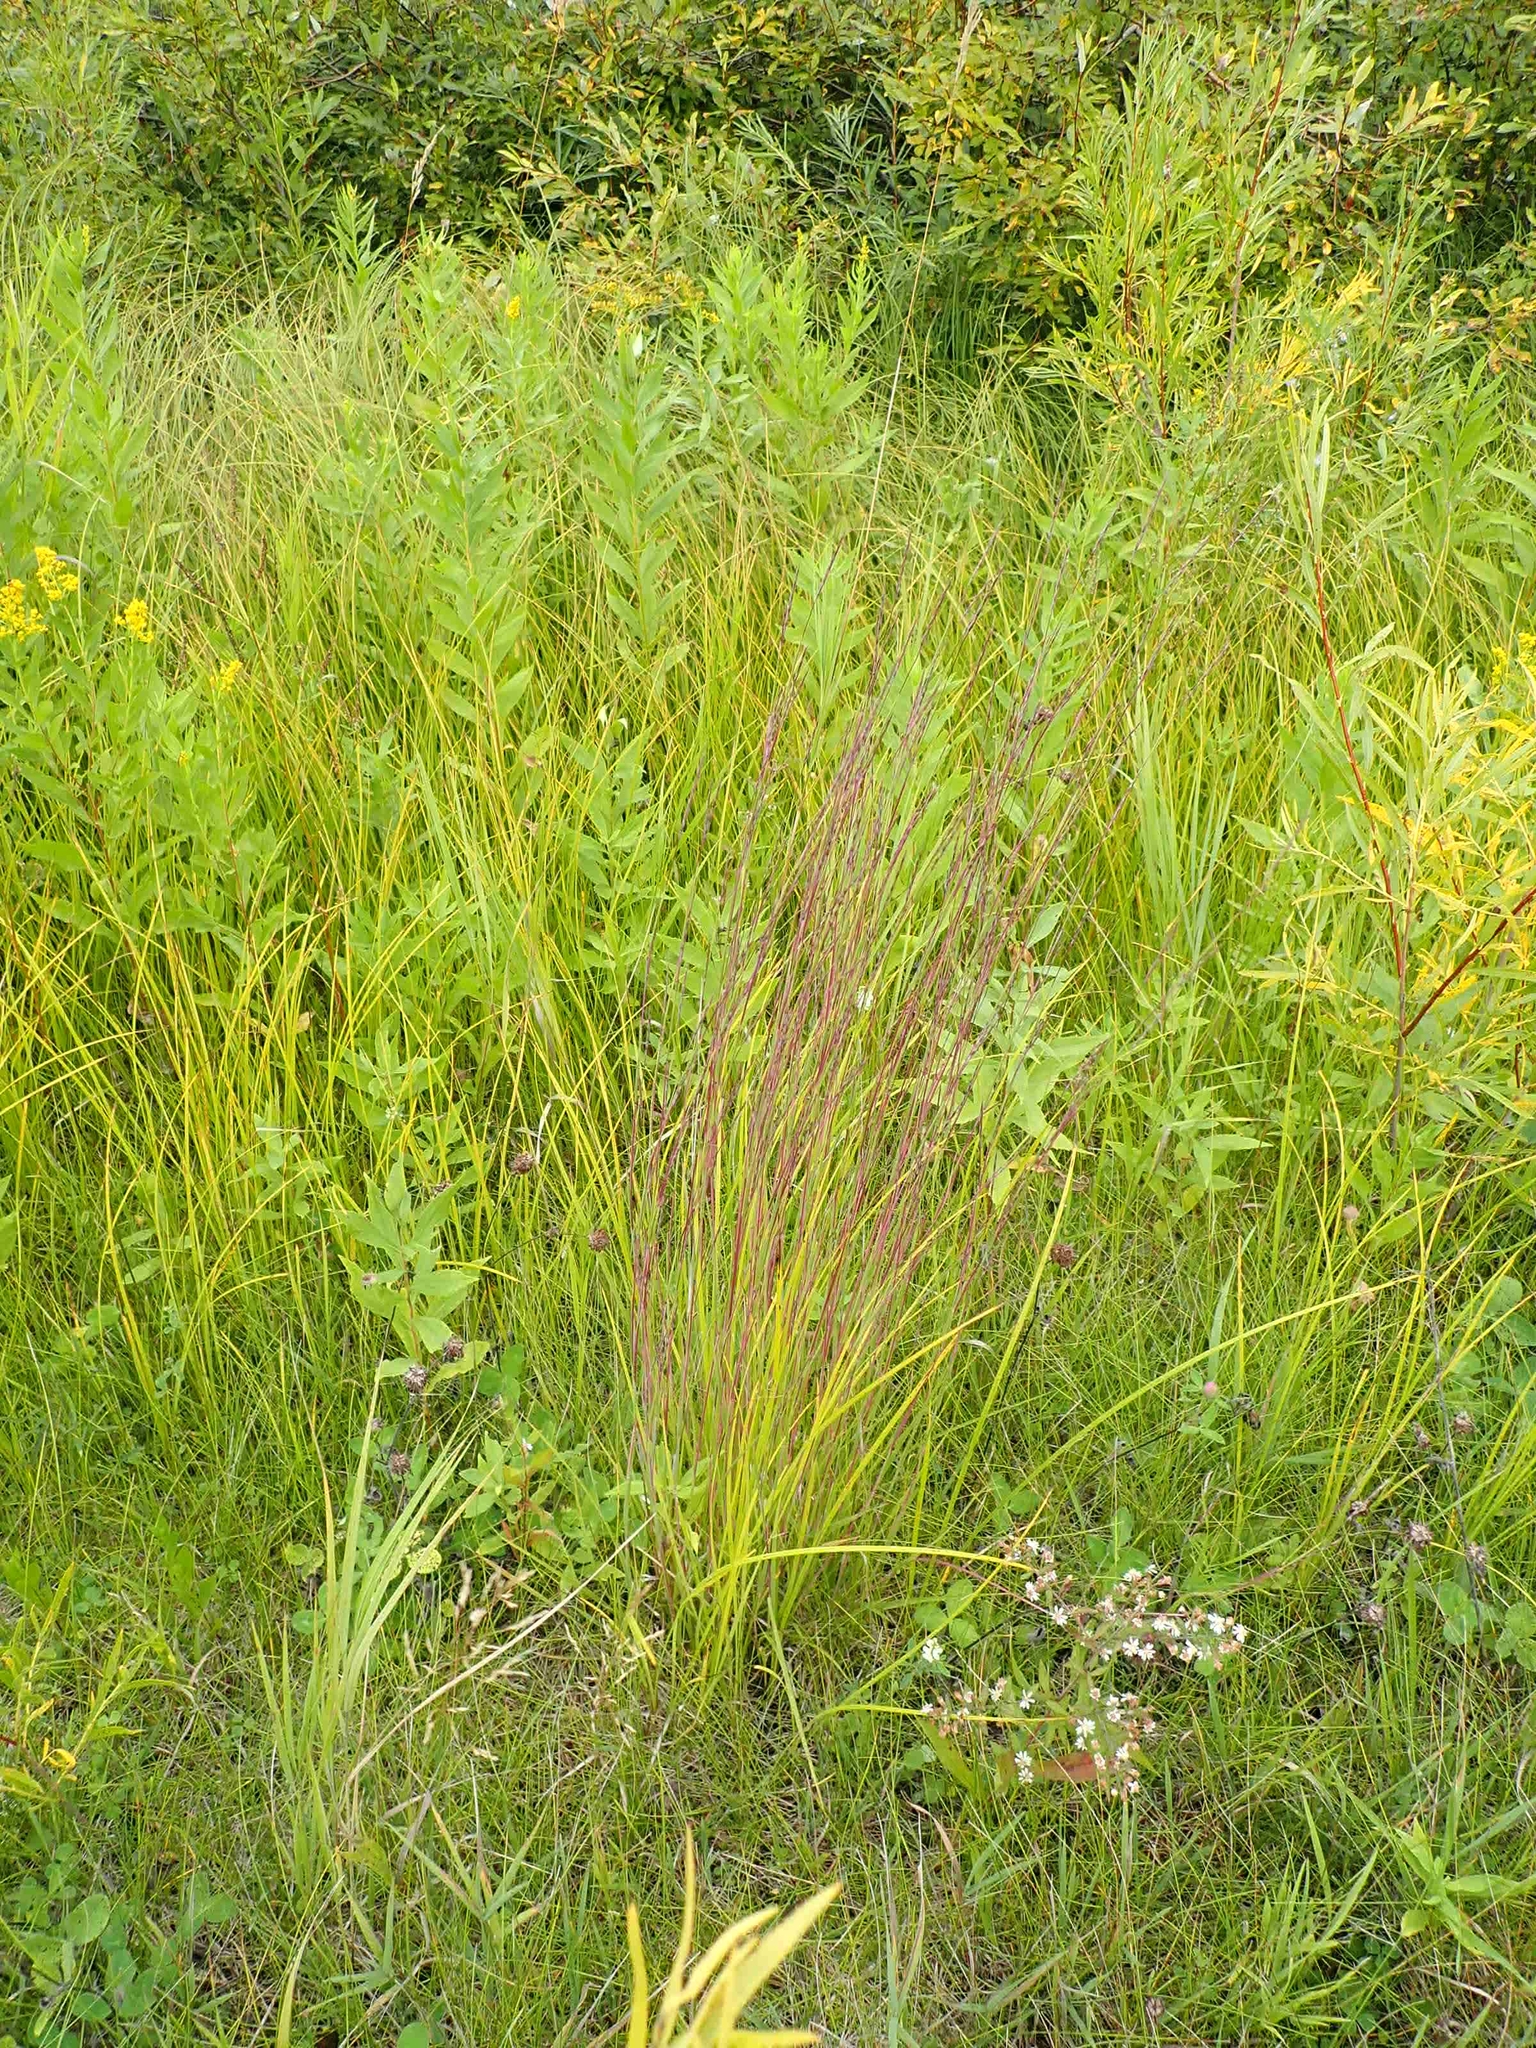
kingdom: Plantae
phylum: Tracheophyta
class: Liliopsida
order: Poales
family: Poaceae
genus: Schizachyrium
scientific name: Schizachyrium scoparium
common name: Little bluestem
